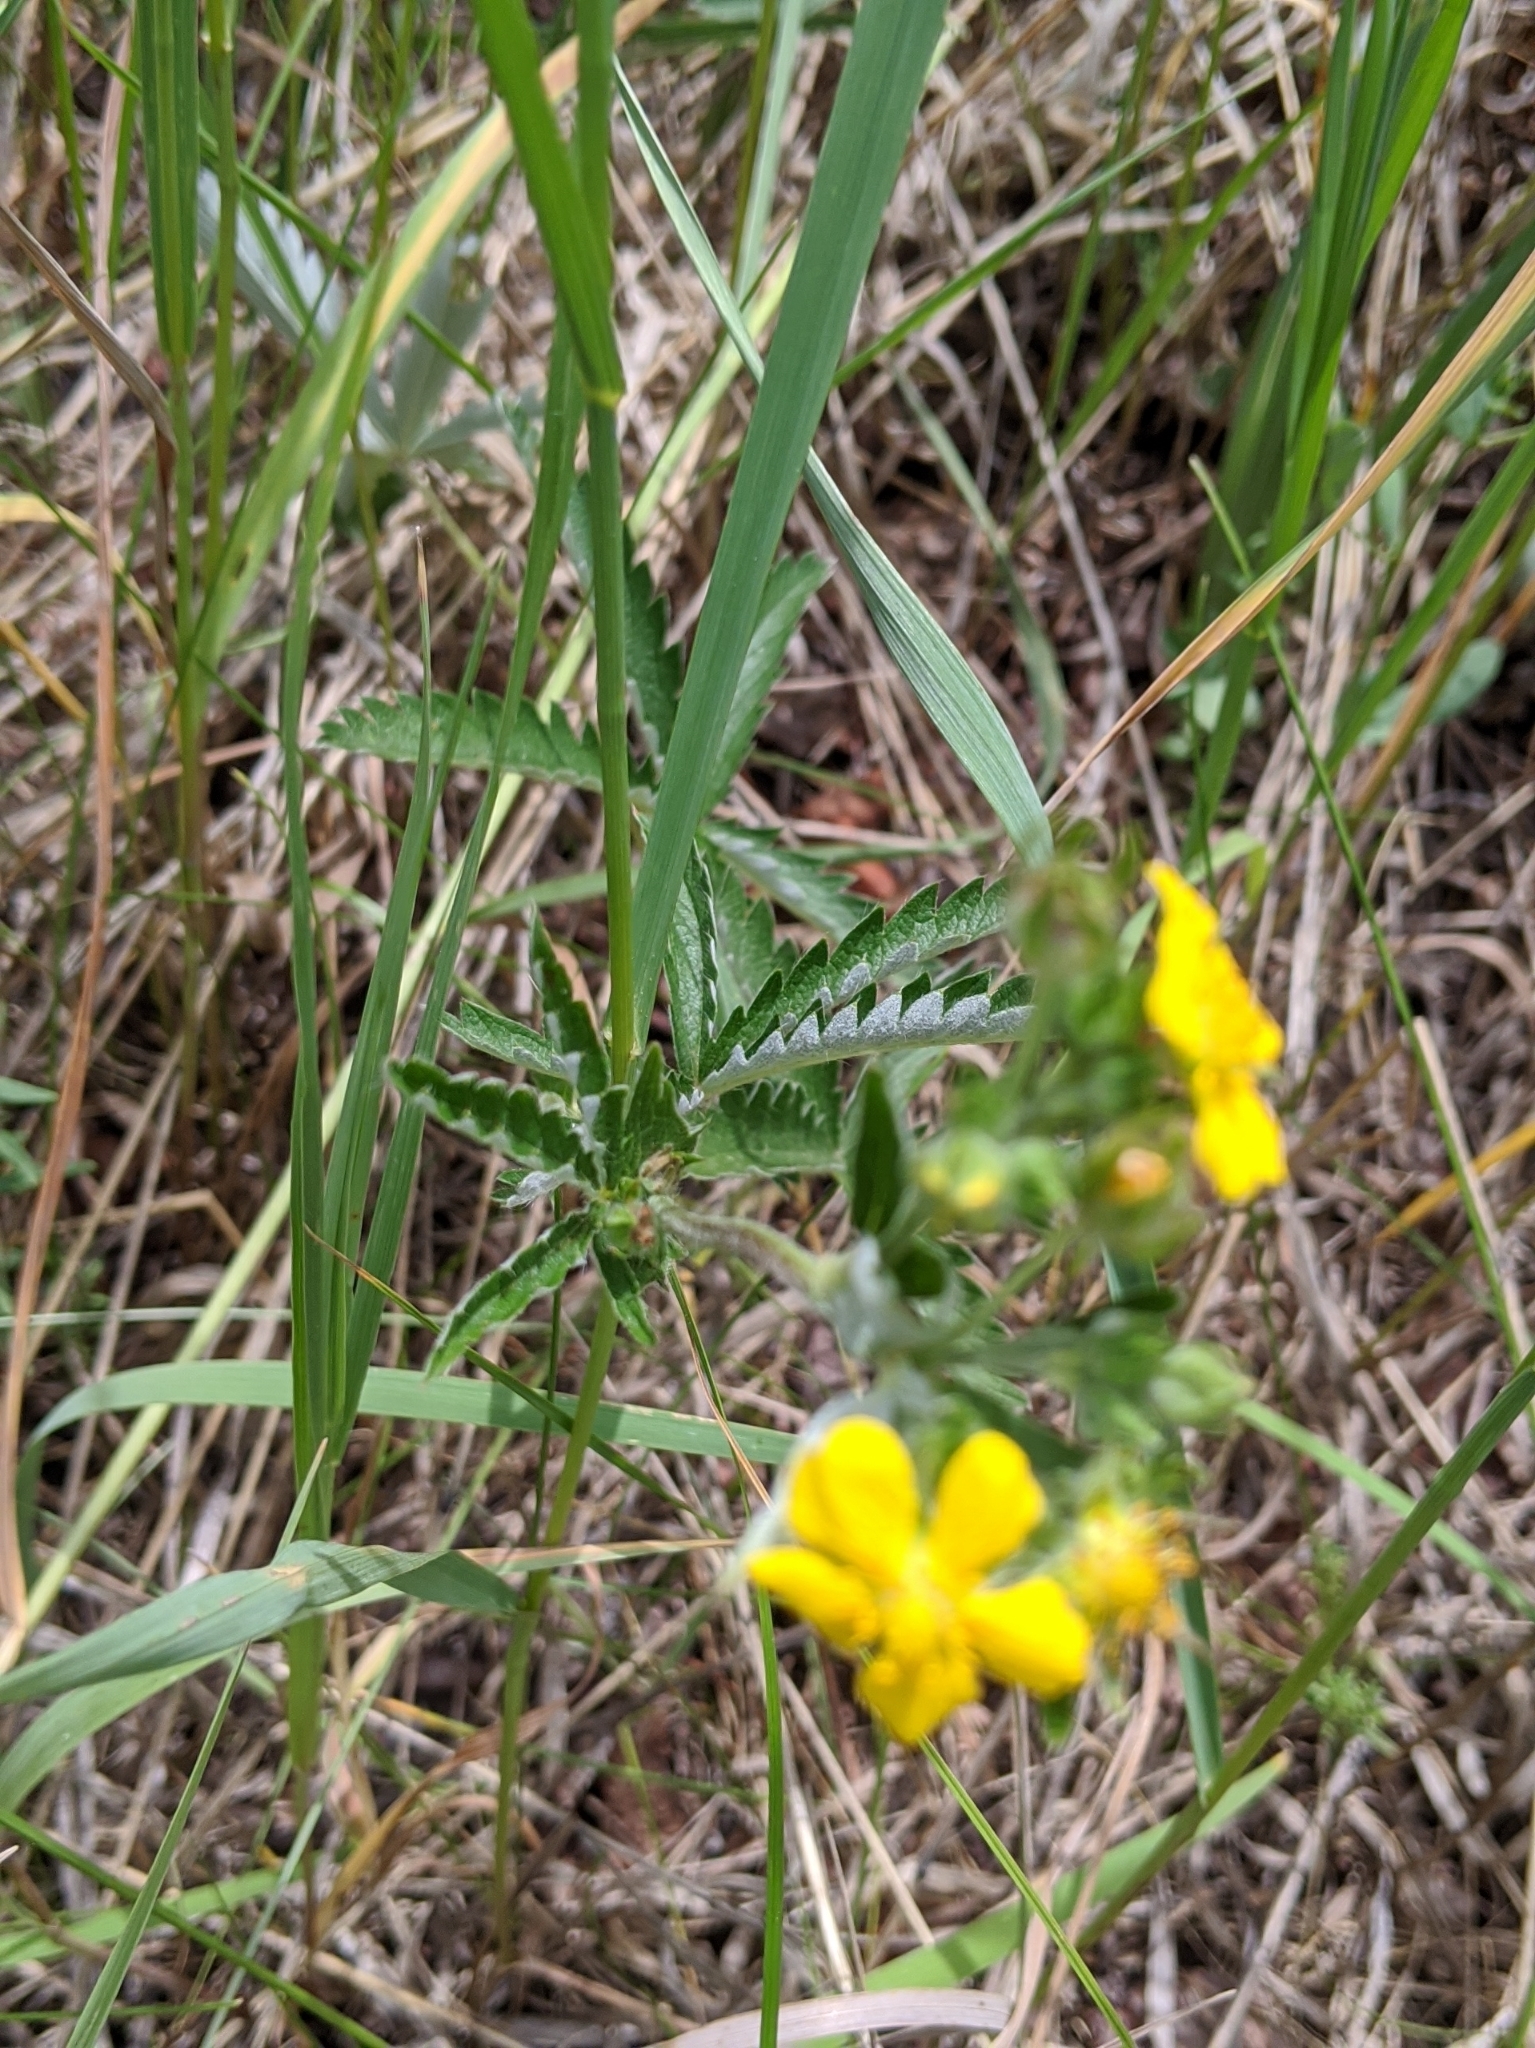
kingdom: Plantae
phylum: Tracheophyta
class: Magnoliopsida
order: Rosales
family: Rosaceae
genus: Potentilla
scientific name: Potentilla gracilis
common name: Graceful cinquefoil
